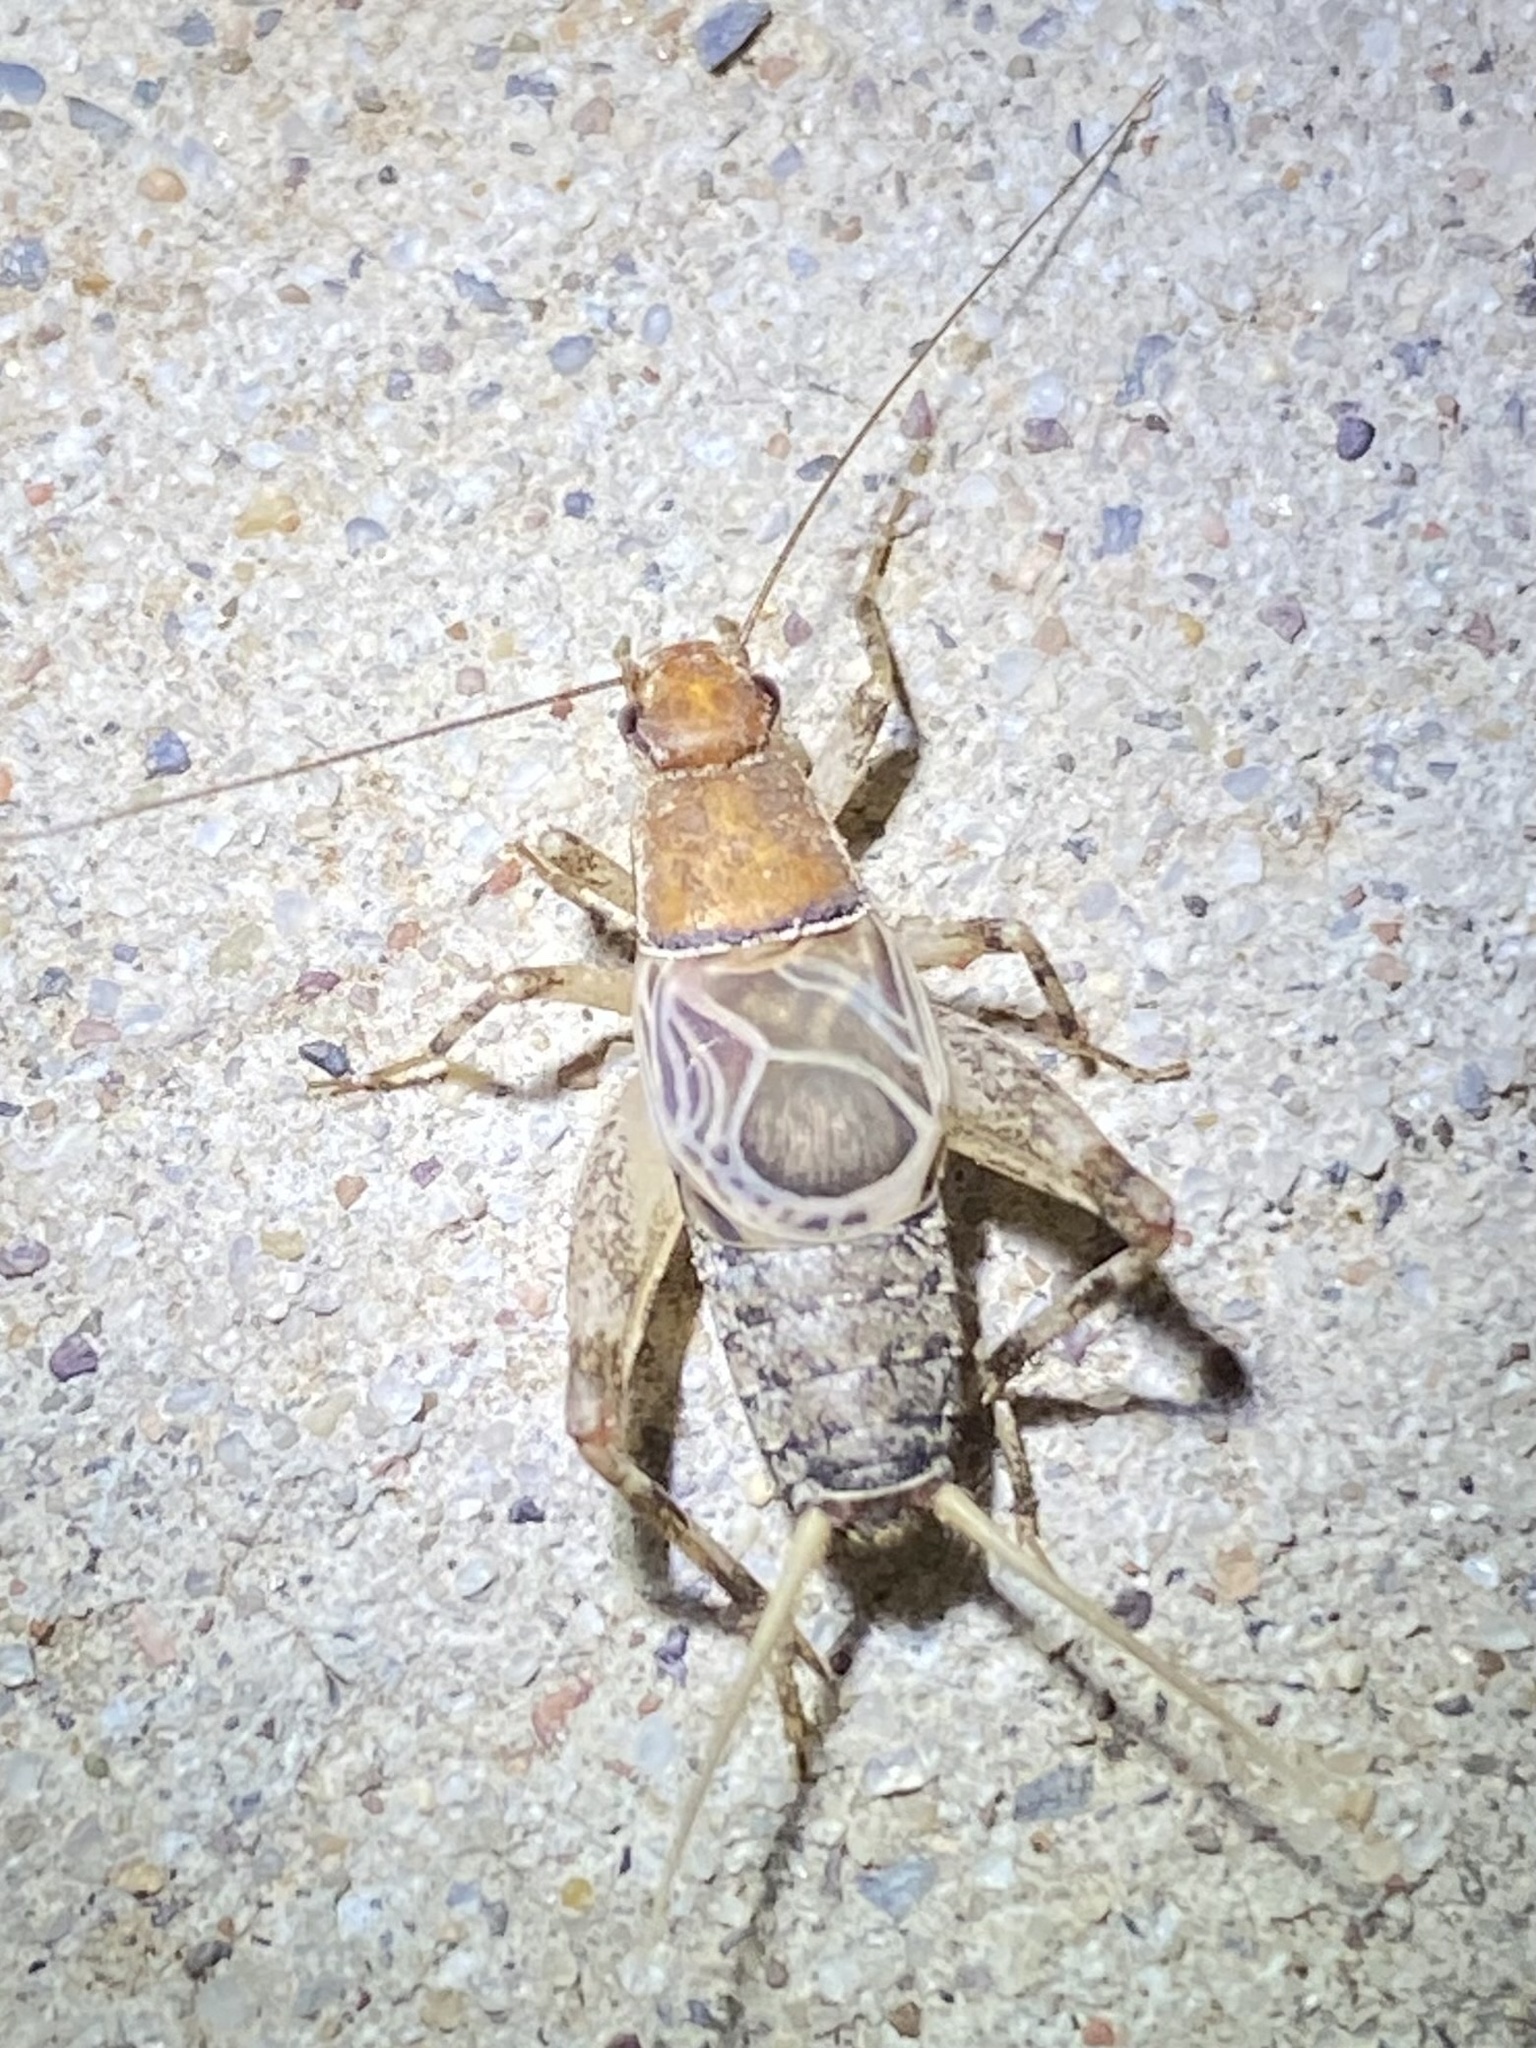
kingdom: Animalia
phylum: Arthropoda
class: Insecta
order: Orthoptera
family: Mogoplistidae
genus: Hoplosphyrum
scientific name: Hoplosphyrum boreale
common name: Long-winged scaly cricket
